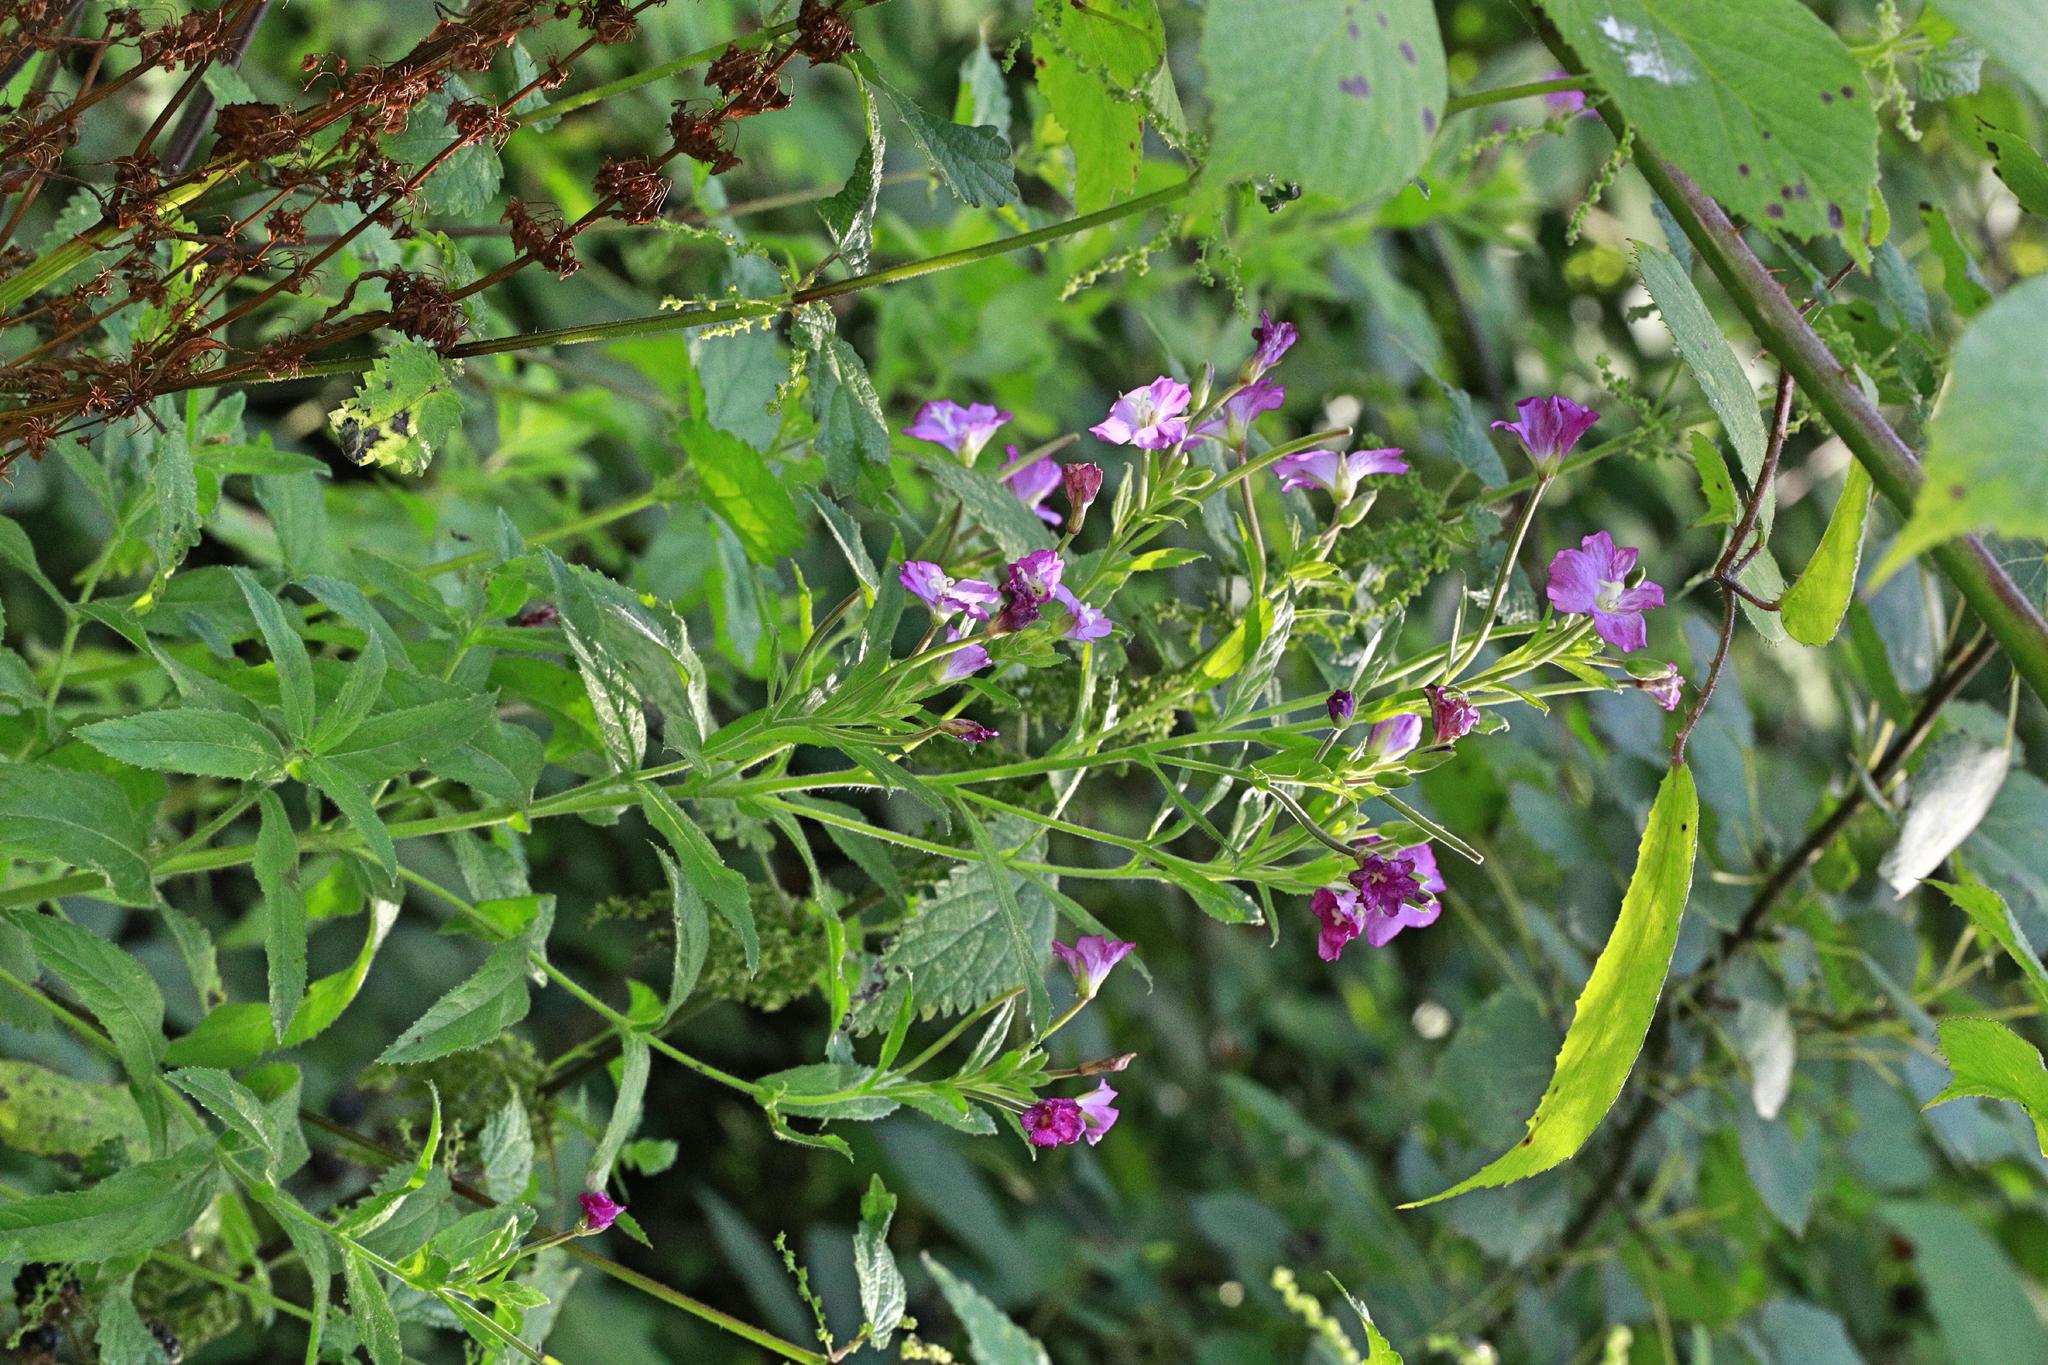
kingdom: Plantae
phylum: Tracheophyta
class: Magnoliopsida
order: Myrtales
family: Onagraceae
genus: Epilobium
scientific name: Epilobium hirsutum
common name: Great willowherb
